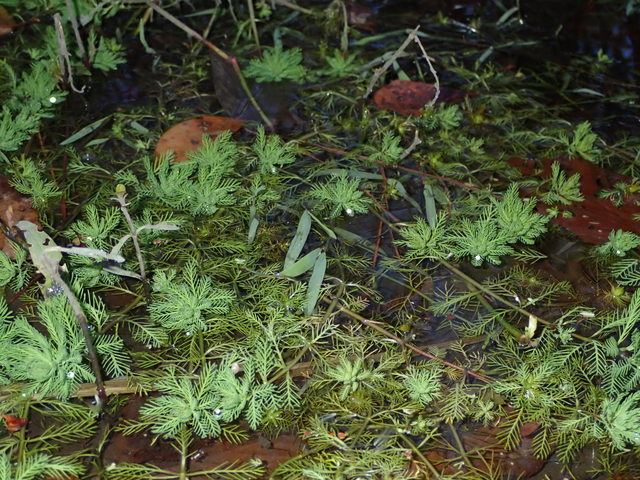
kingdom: Plantae
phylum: Tracheophyta
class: Magnoliopsida
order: Saxifragales
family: Haloragaceae
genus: Myriophyllum
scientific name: Myriophyllum aquaticum
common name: Parrot's feather
